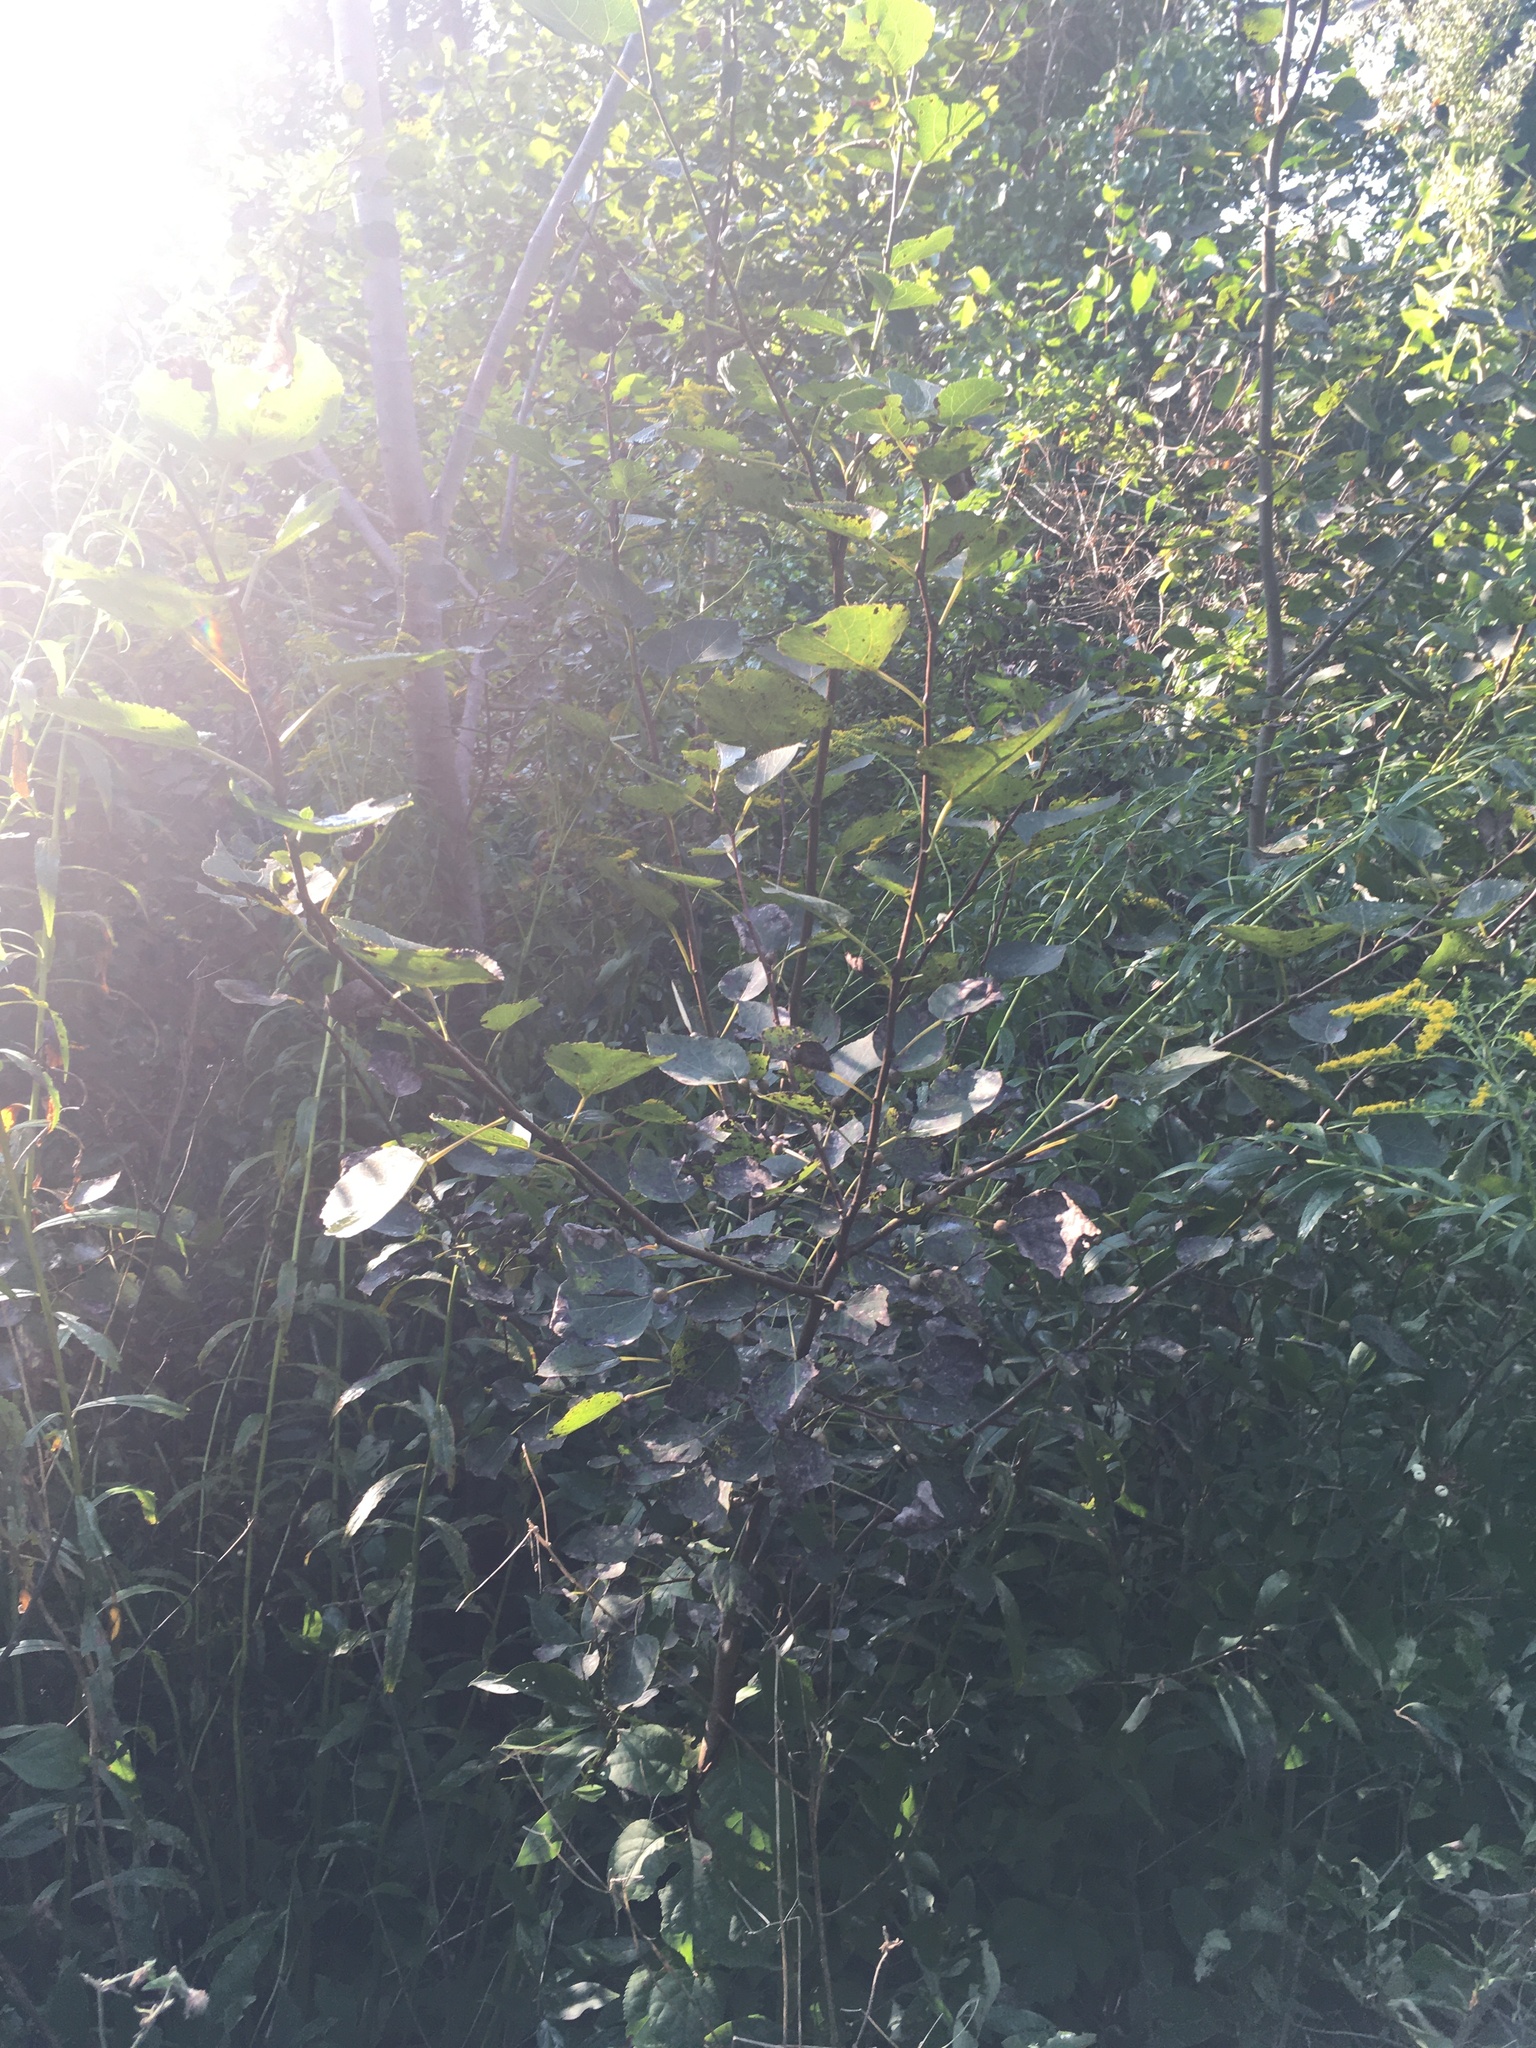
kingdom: Plantae
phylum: Tracheophyta
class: Magnoliopsida
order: Malpighiales
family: Salicaceae
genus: Populus
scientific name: Populus tremuloides
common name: Quaking aspen
